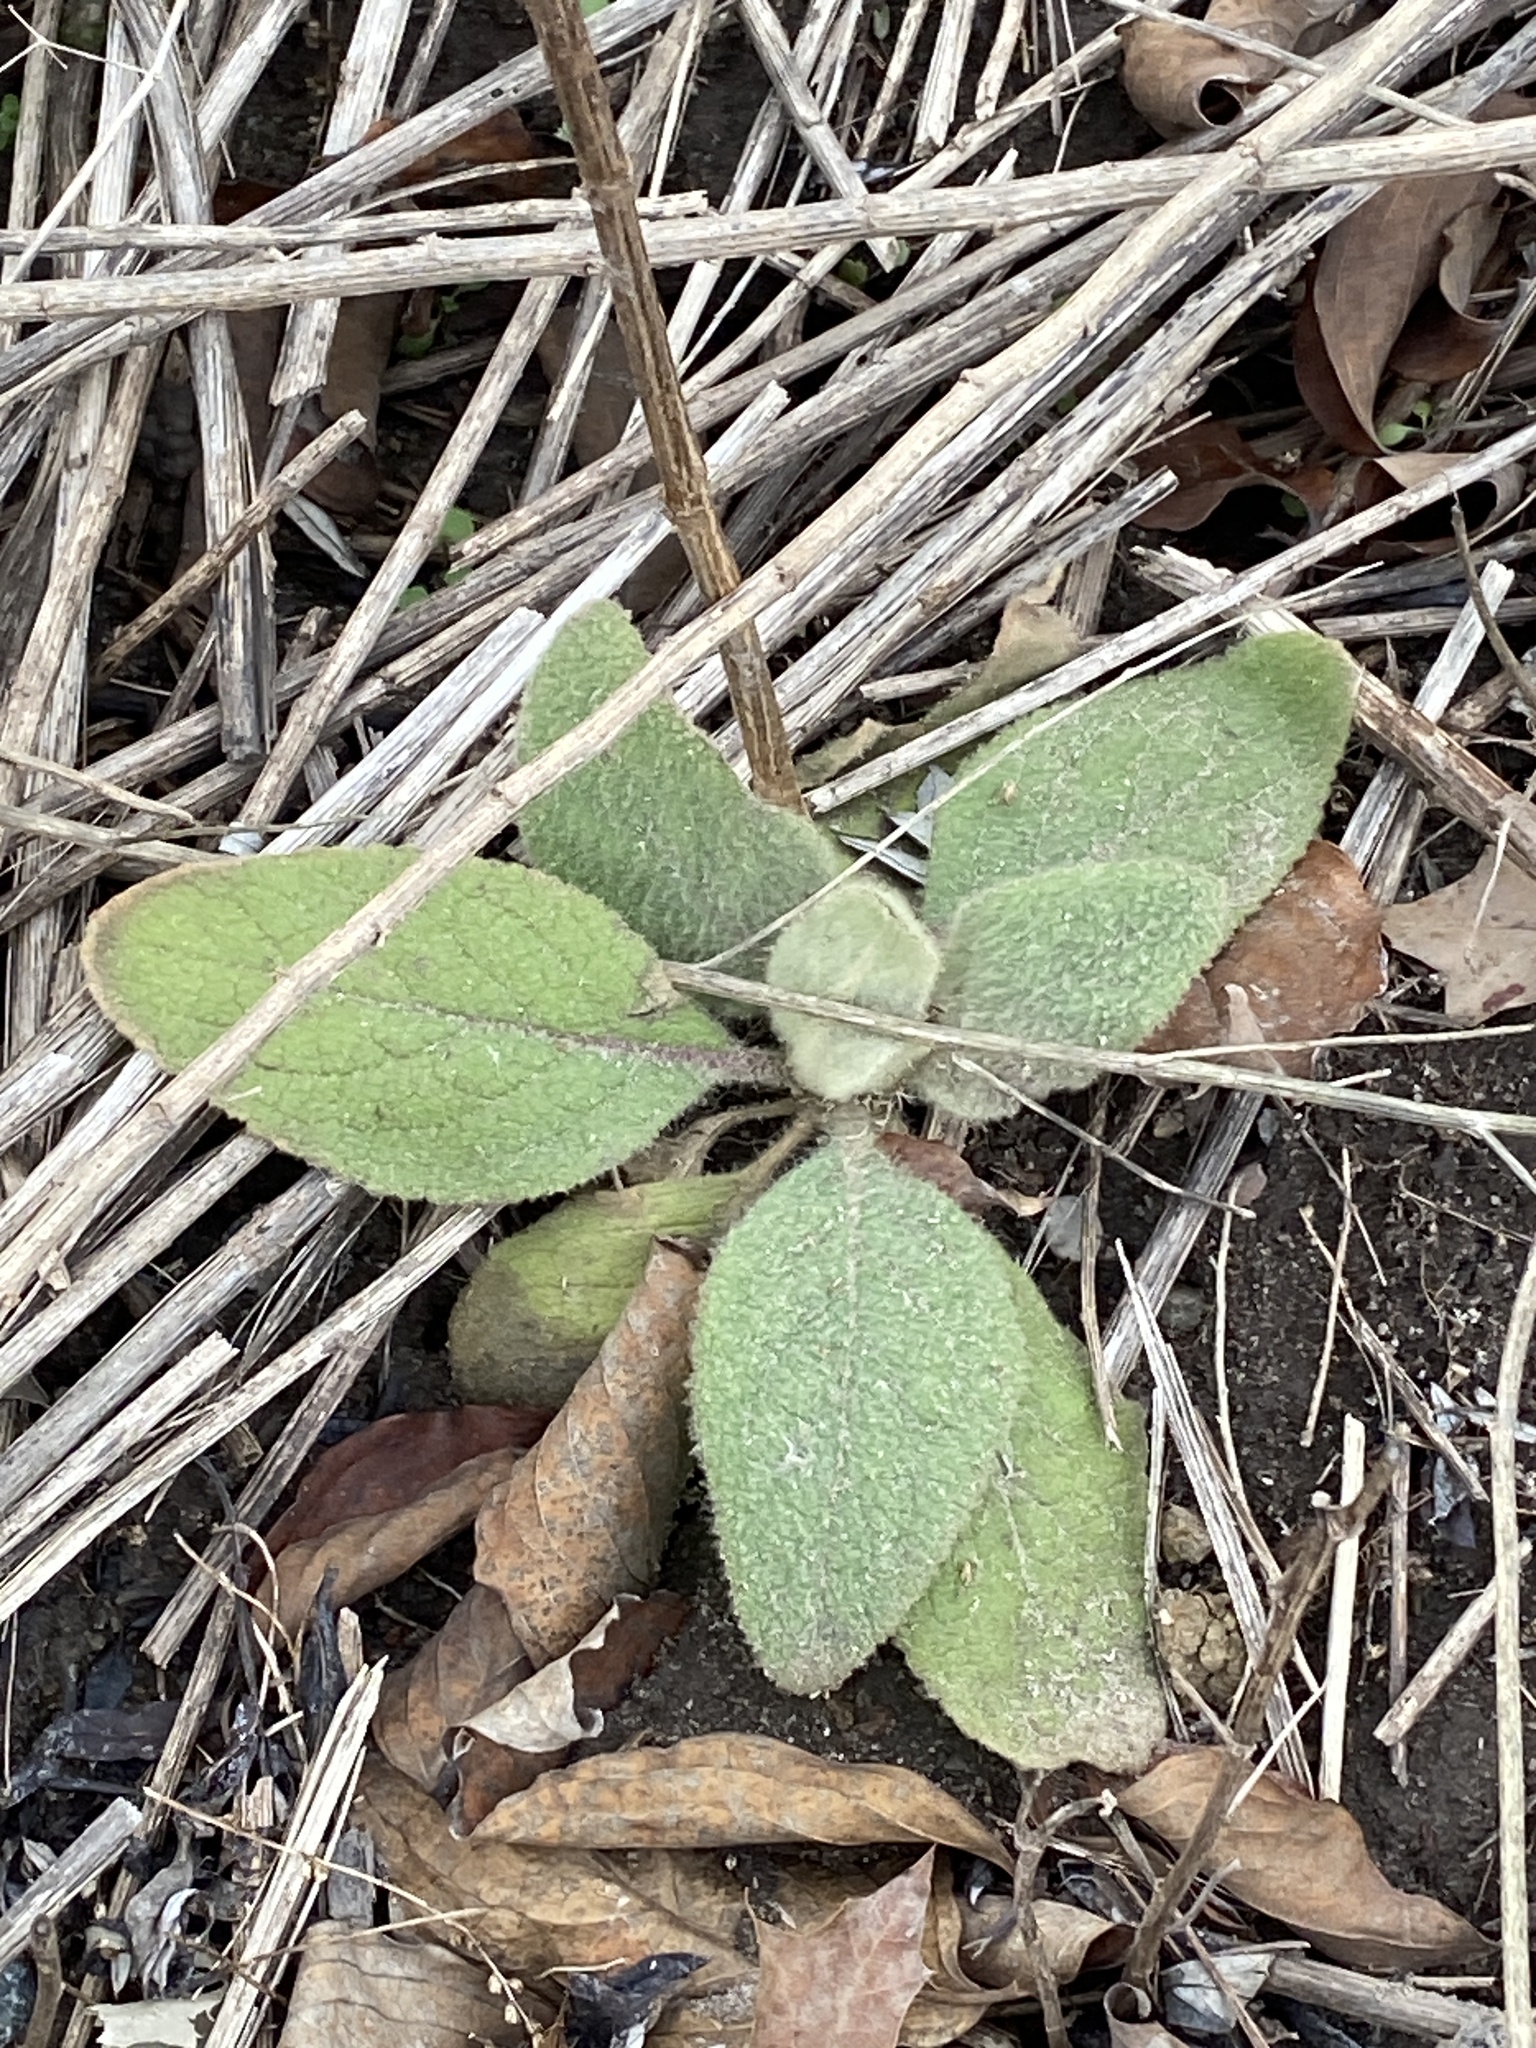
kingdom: Plantae
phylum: Tracheophyta
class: Magnoliopsida
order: Lamiales
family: Scrophulariaceae
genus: Verbascum
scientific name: Verbascum thapsus
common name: Common mullein
